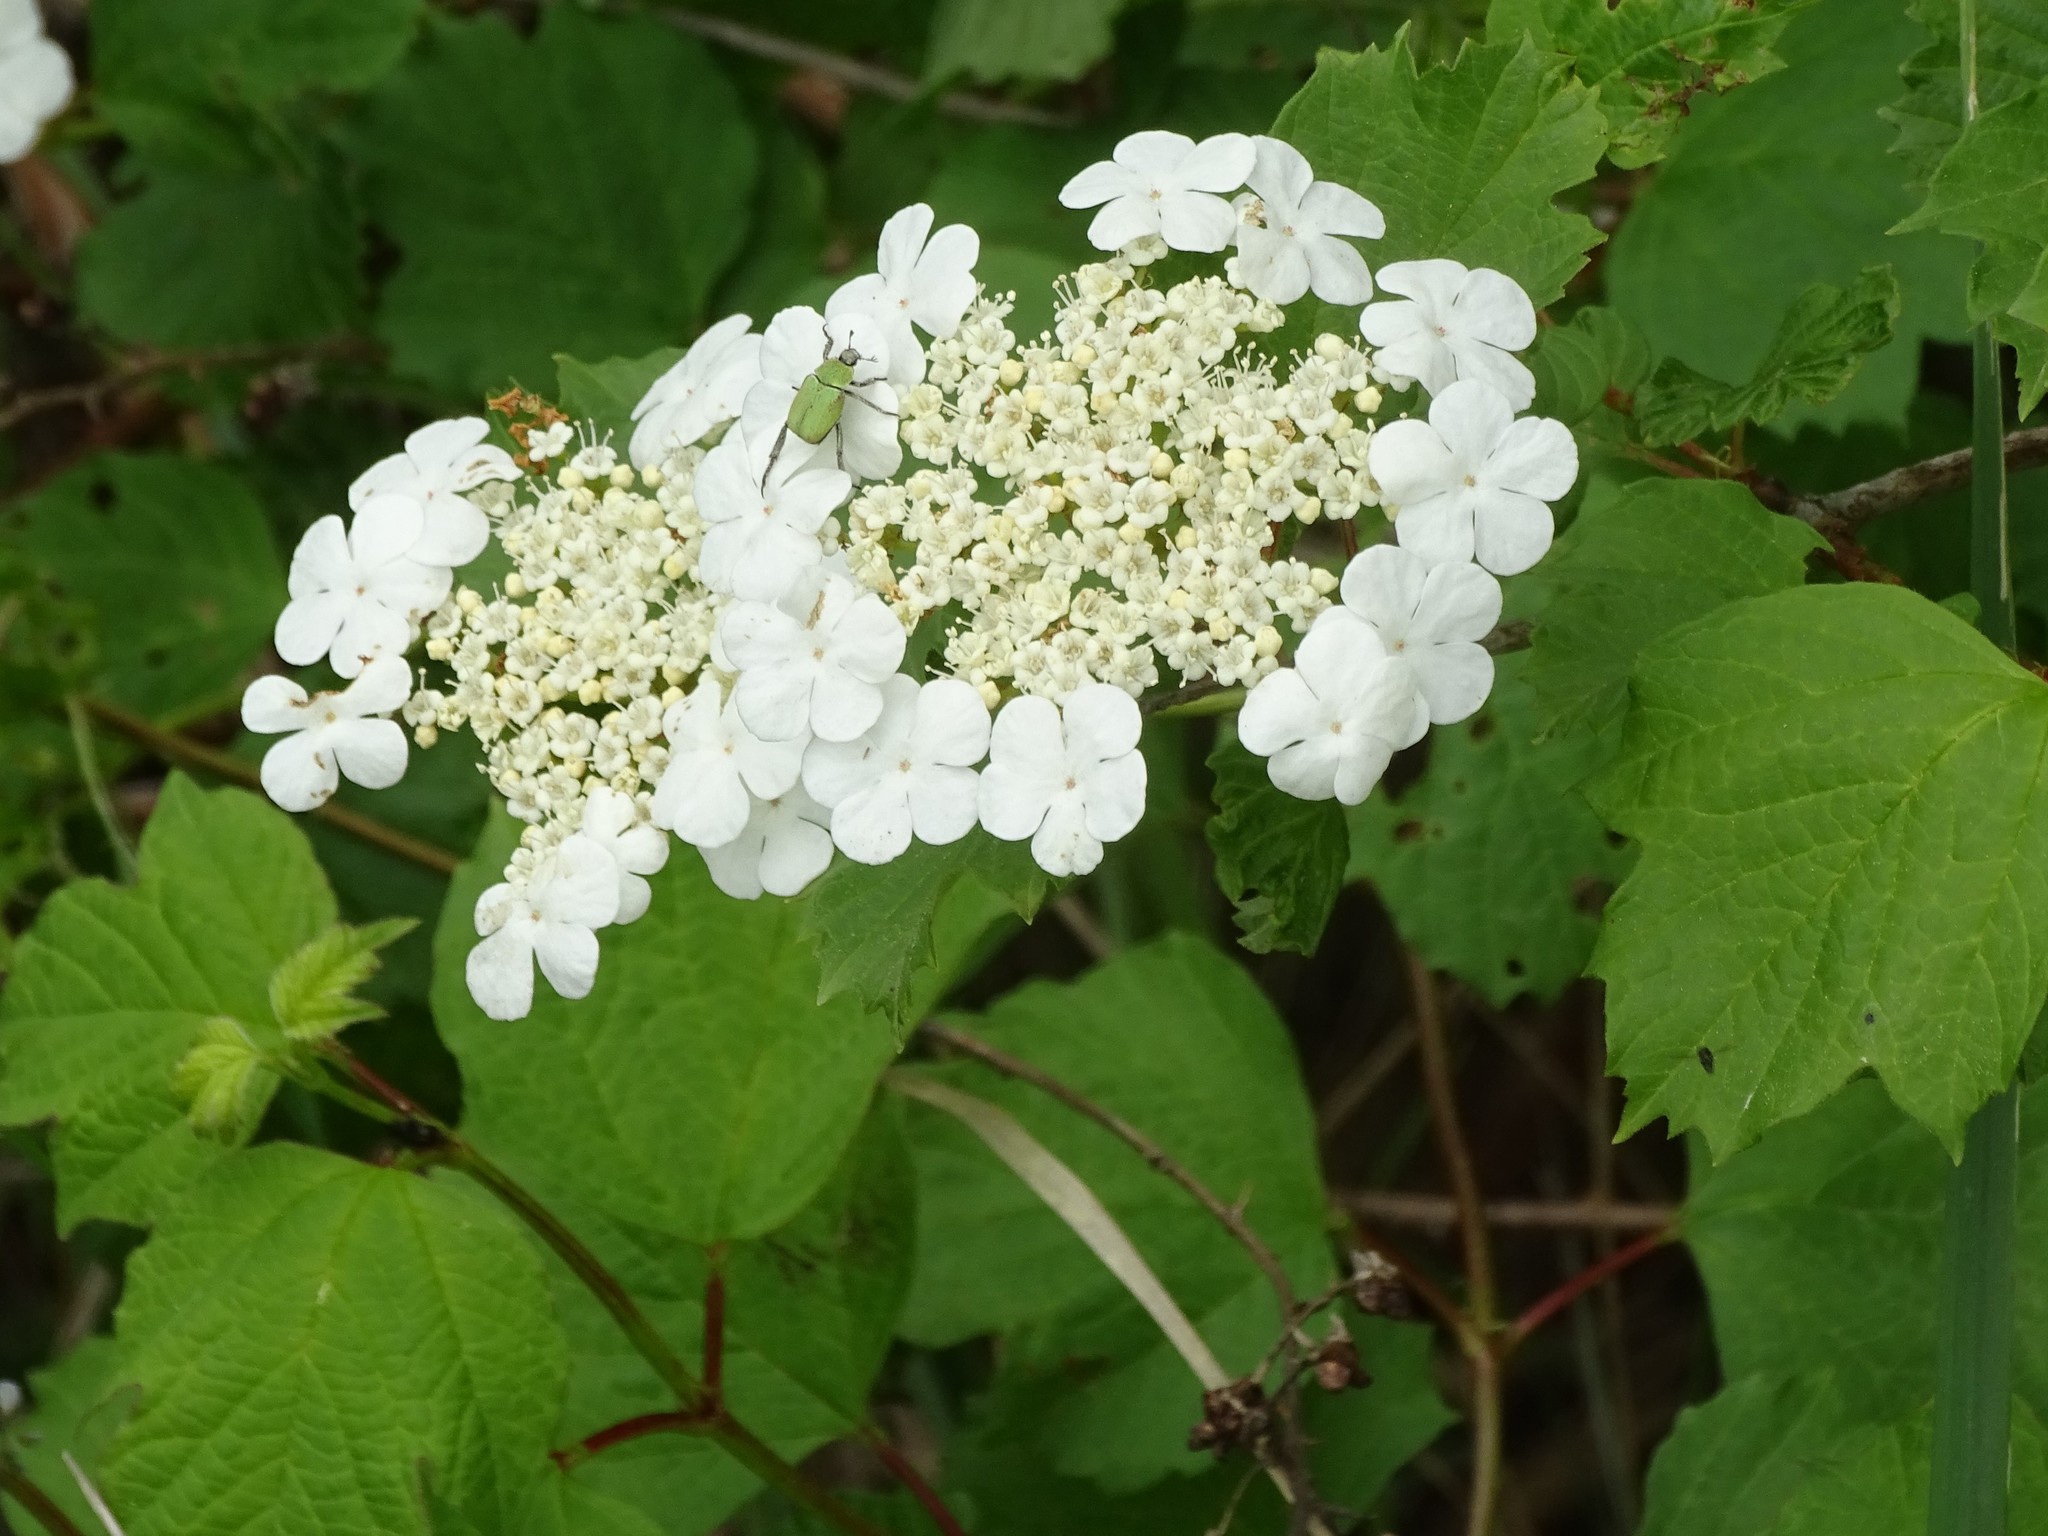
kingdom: Plantae
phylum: Tracheophyta
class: Magnoliopsida
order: Dipsacales
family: Viburnaceae
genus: Viburnum
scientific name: Viburnum opulus
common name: Guelder-rose
